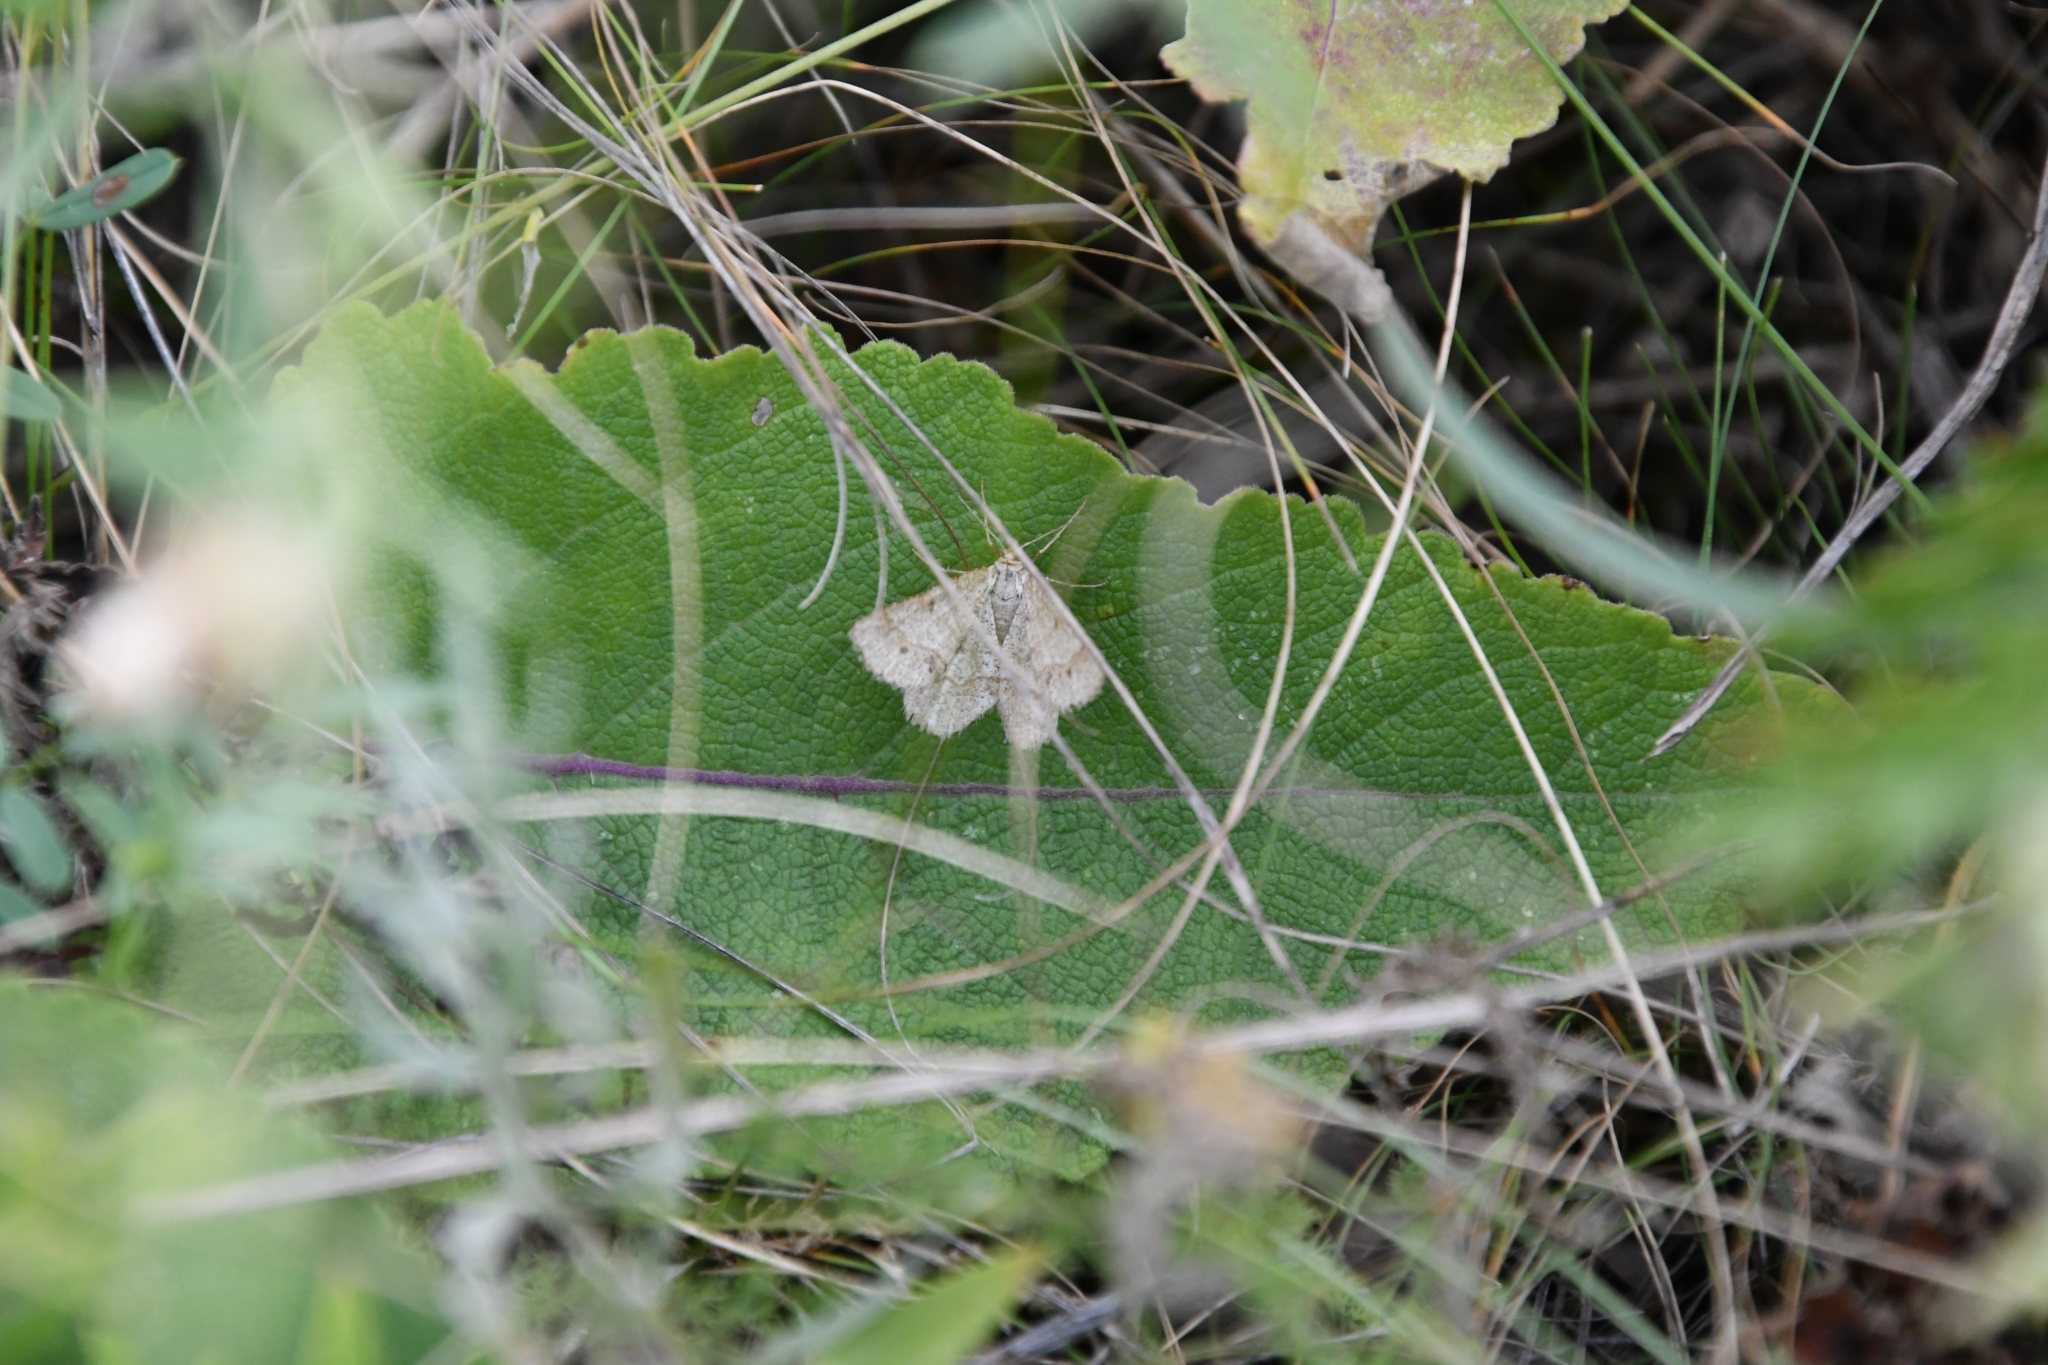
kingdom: Animalia
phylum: Arthropoda
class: Insecta
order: Lepidoptera
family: Geometridae
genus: Tephrina
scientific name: Tephrina murinaria
